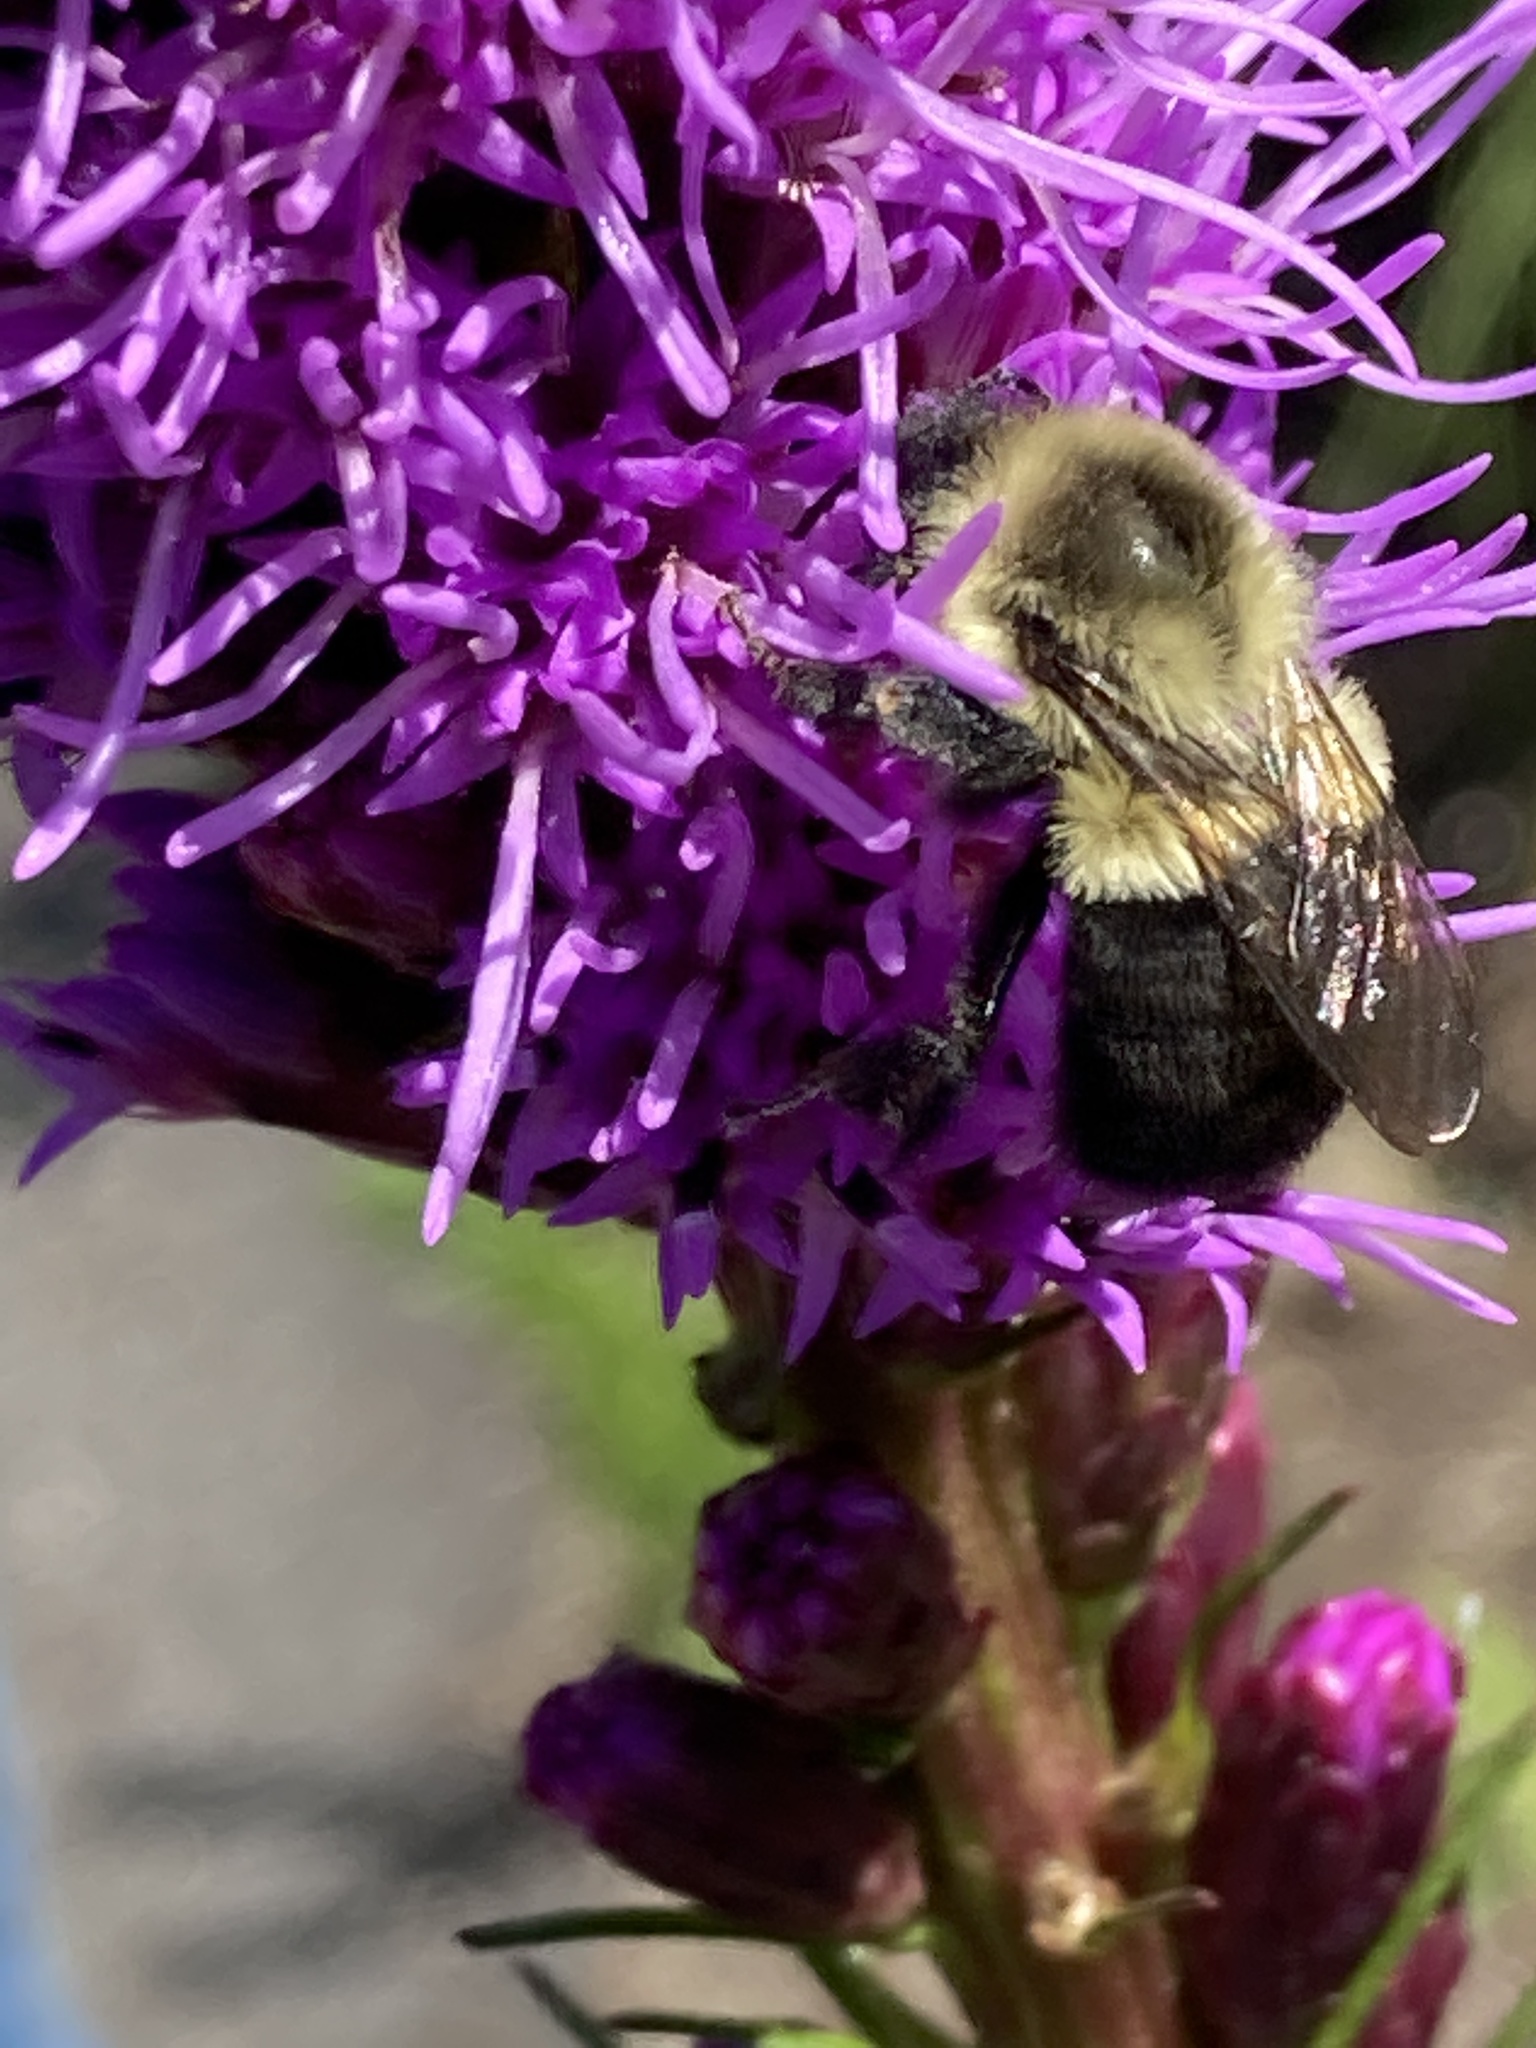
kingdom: Animalia
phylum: Arthropoda
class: Insecta
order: Hymenoptera
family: Apidae
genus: Bombus
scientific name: Bombus impatiens
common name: Common eastern bumble bee
